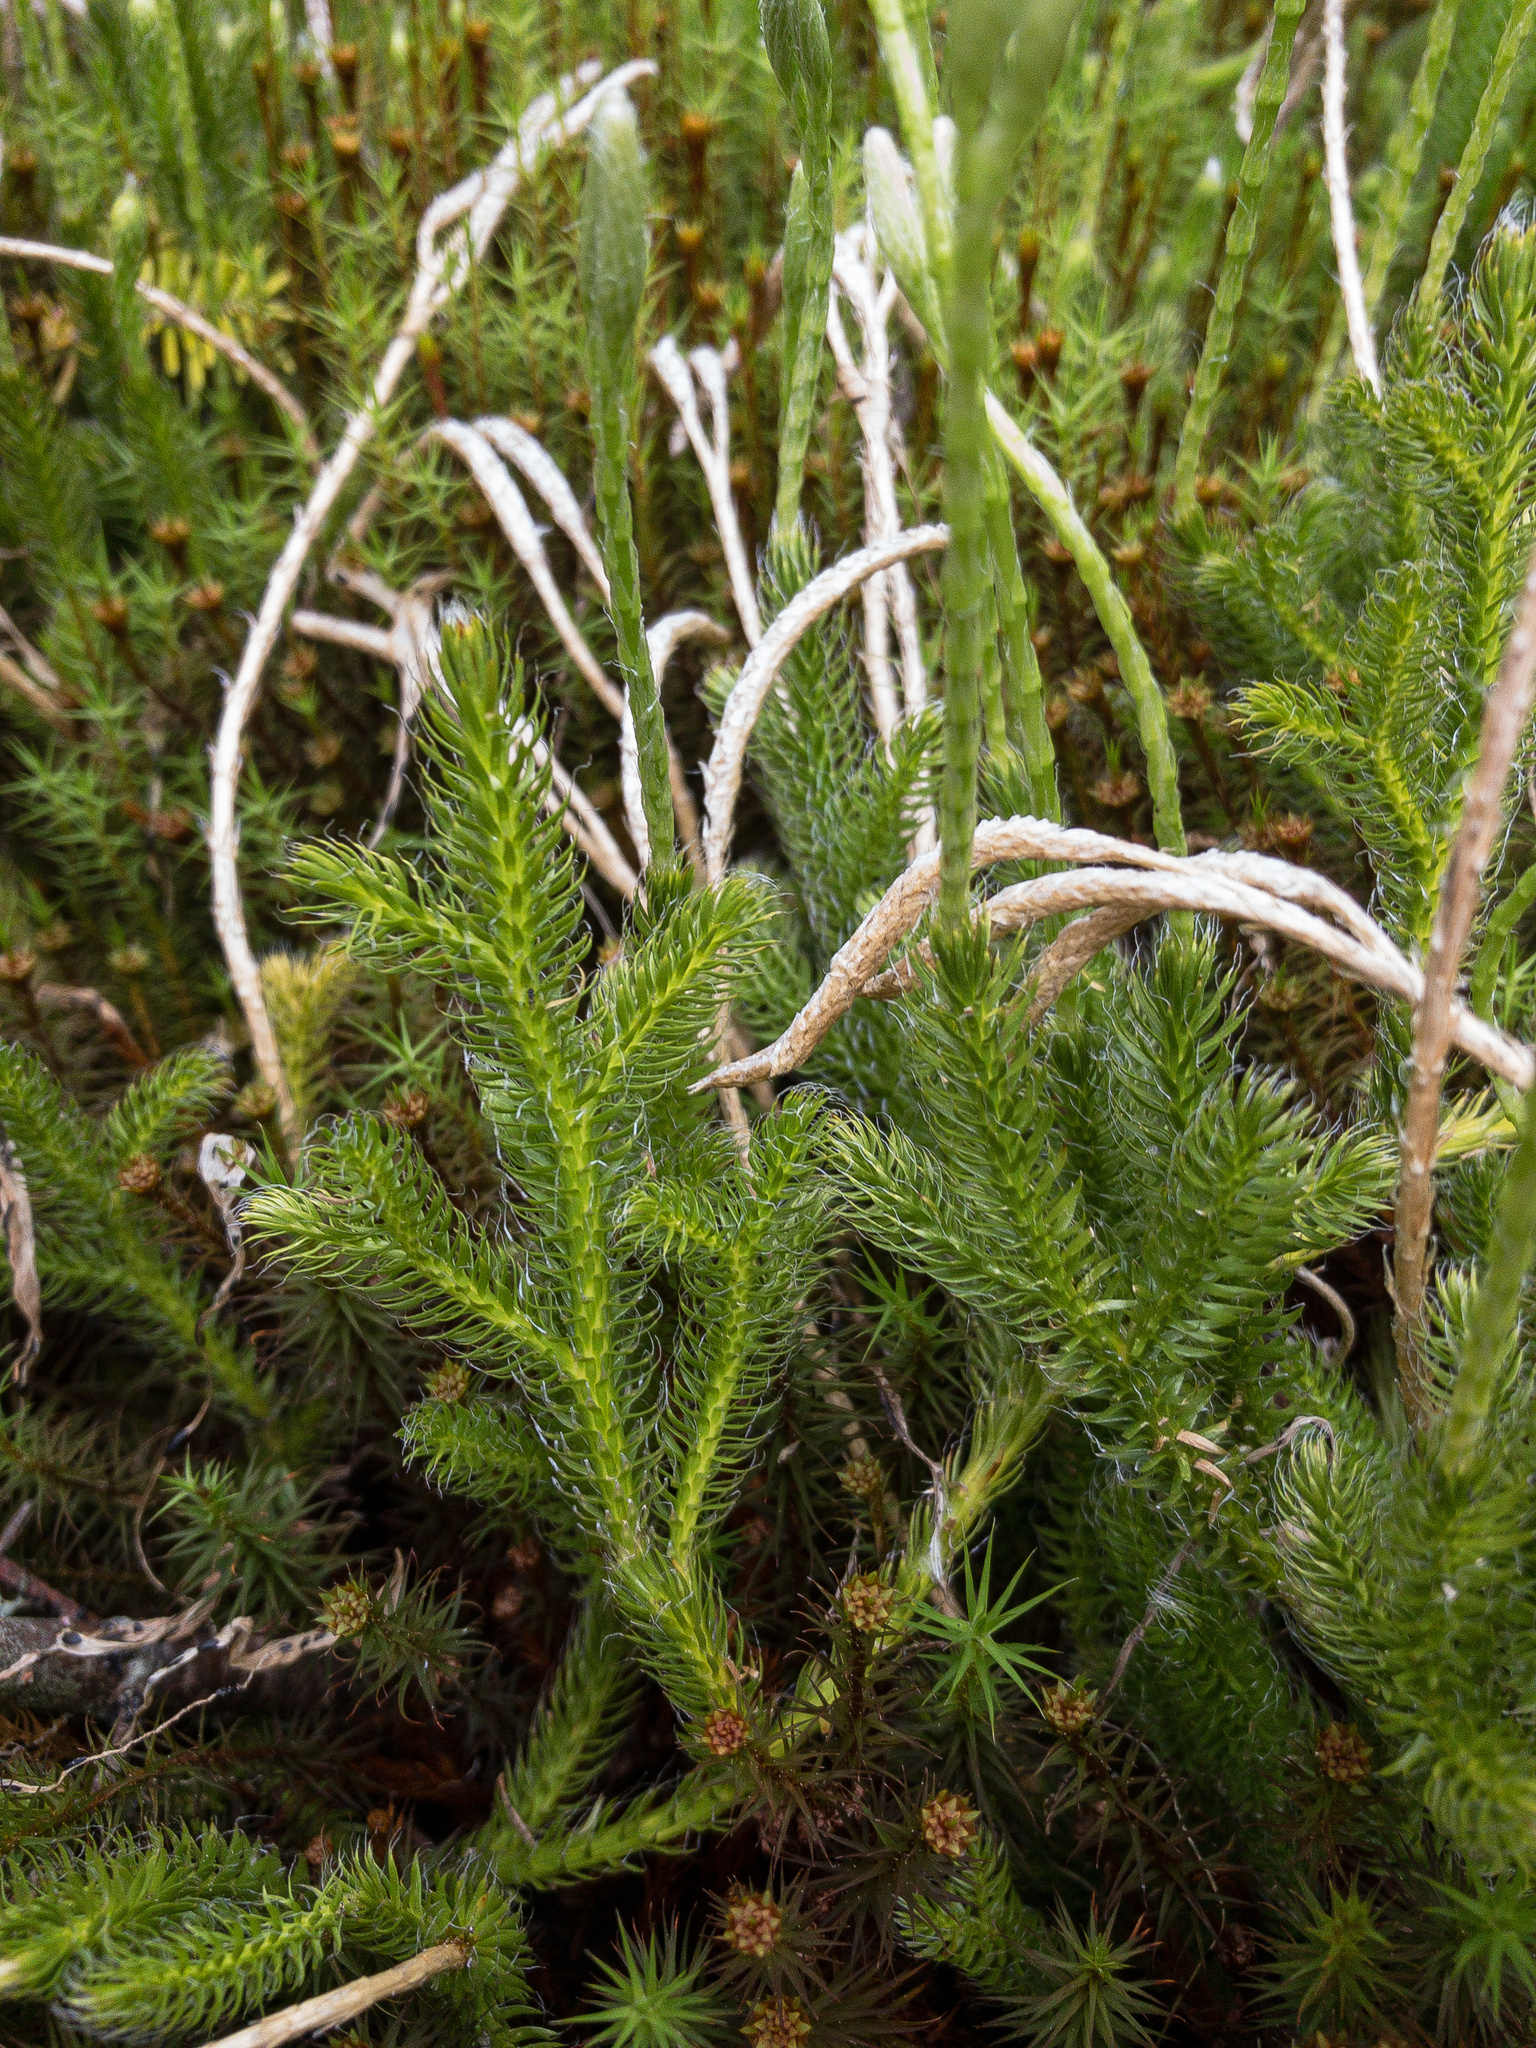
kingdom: Plantae
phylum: Tracheophyta
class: Lycopodiopsida
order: Lycopodiales
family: Lycopodiaceae
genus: Lycopodium
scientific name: Lycopodium clavatum
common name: Stag's-horn clubmoss
